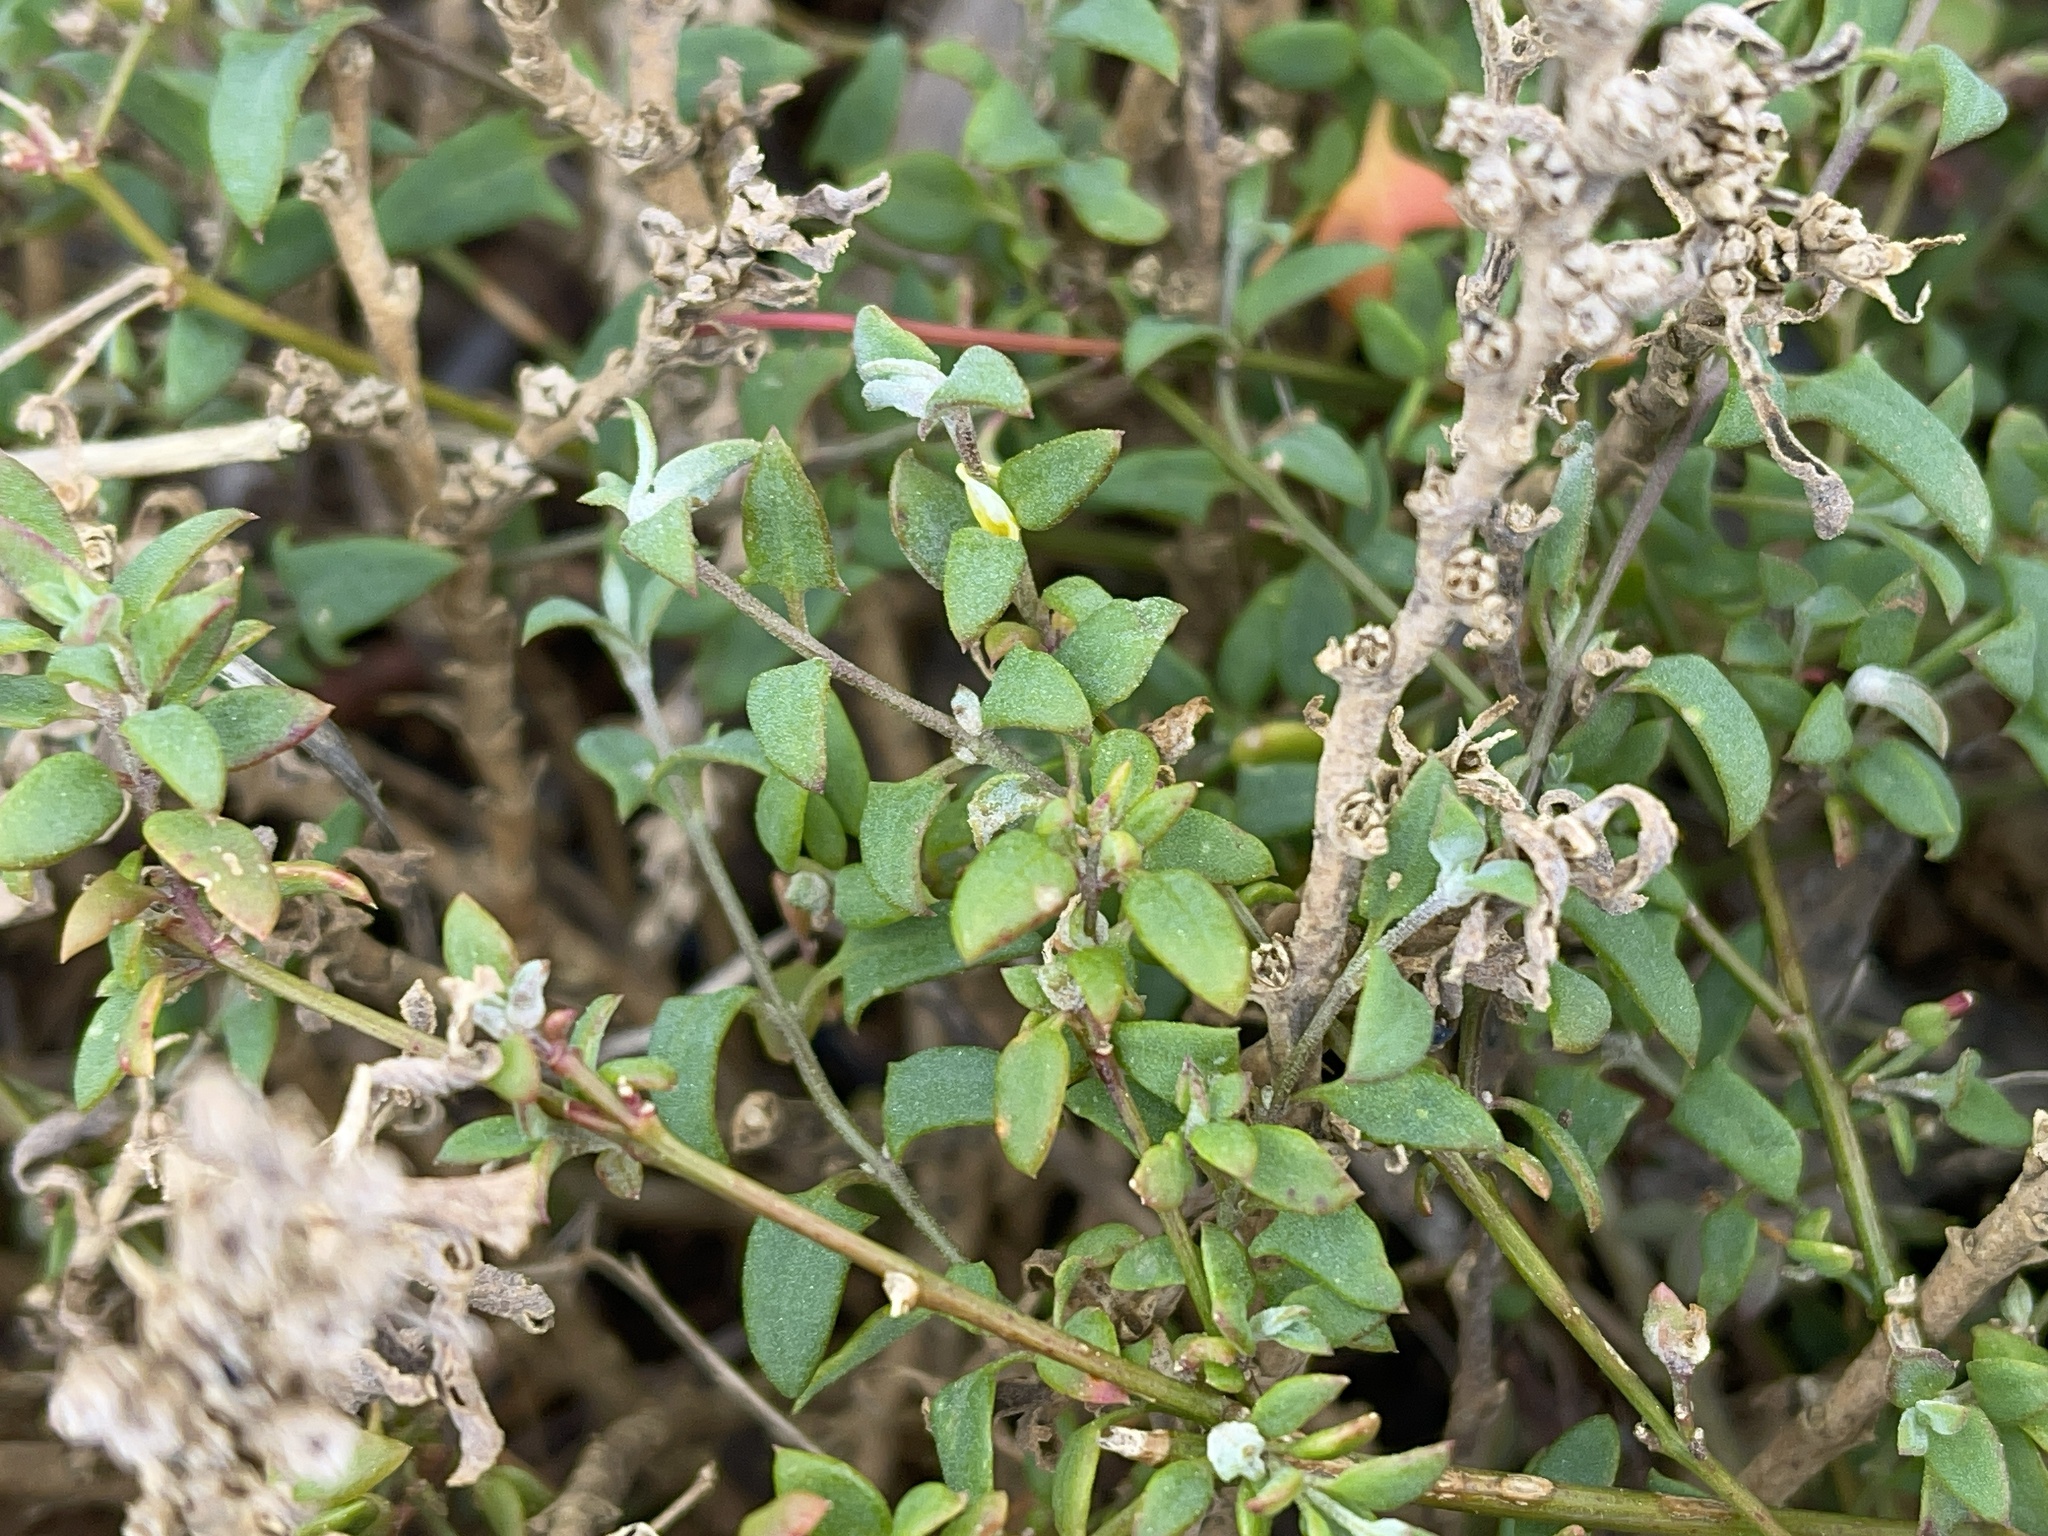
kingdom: Plantae
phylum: Tracheophyta
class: Magnoliopsida
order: Caryophyllales
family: Amaranthaceae
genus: Chenopodium
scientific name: Chenopodium nutans
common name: Climbing-saltbush
